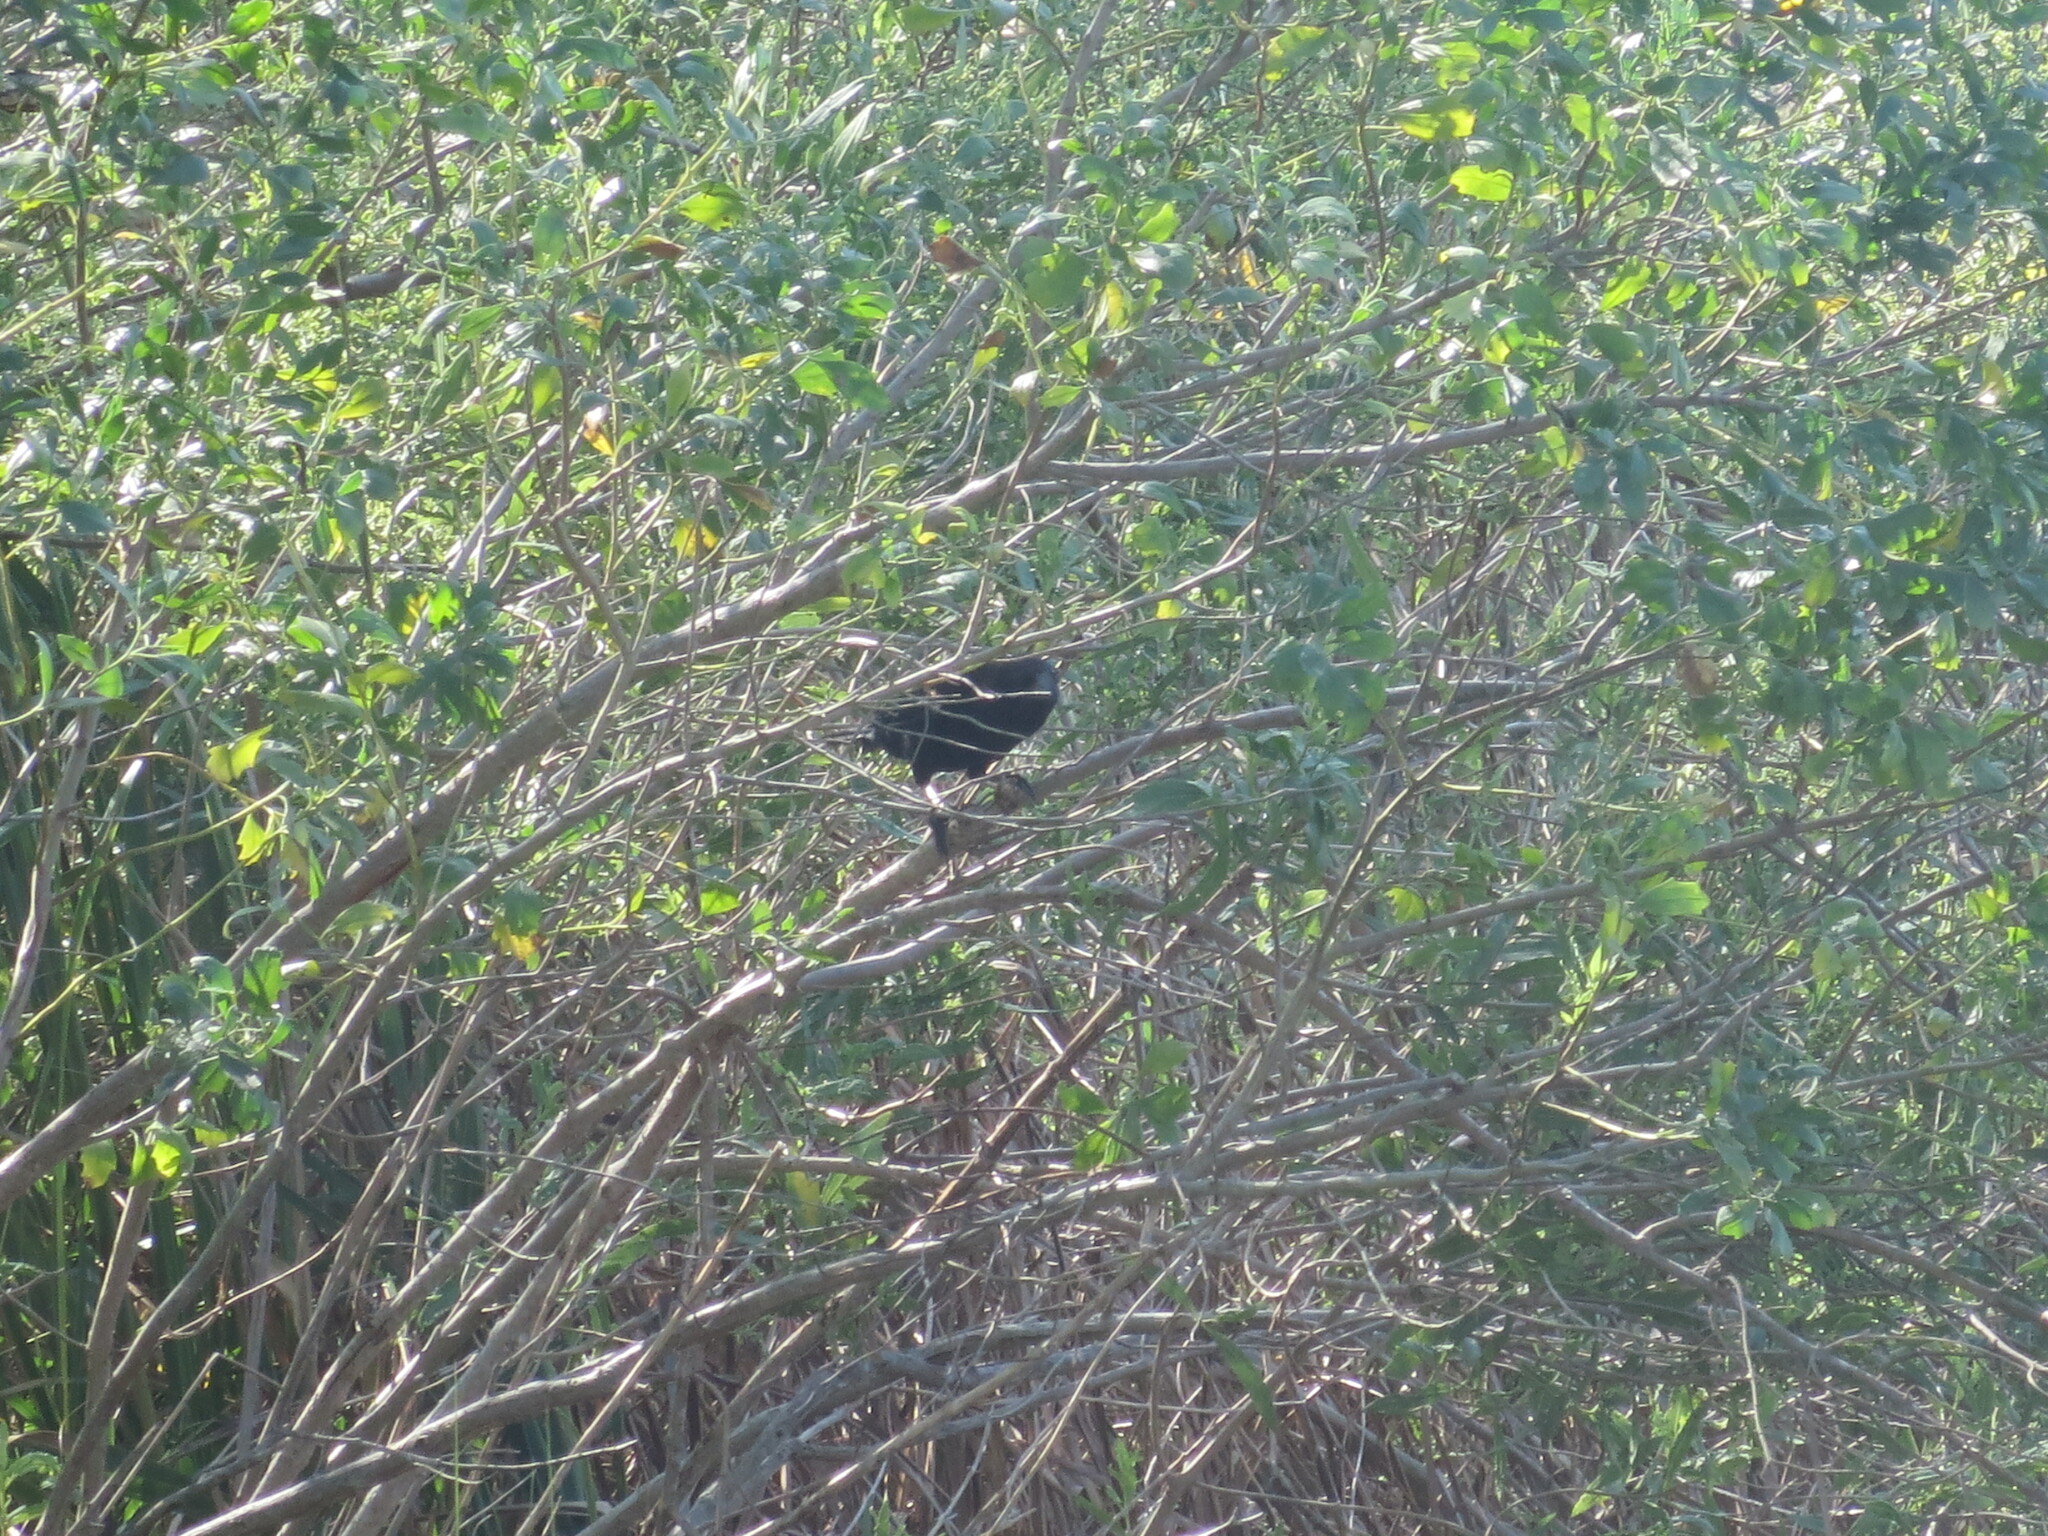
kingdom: Animalia
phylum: Chordata
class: Aves
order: Passeriformes
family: Icteridae
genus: Agelaius
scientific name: Agelaius phoeniceus
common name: Red-winged blackbird
